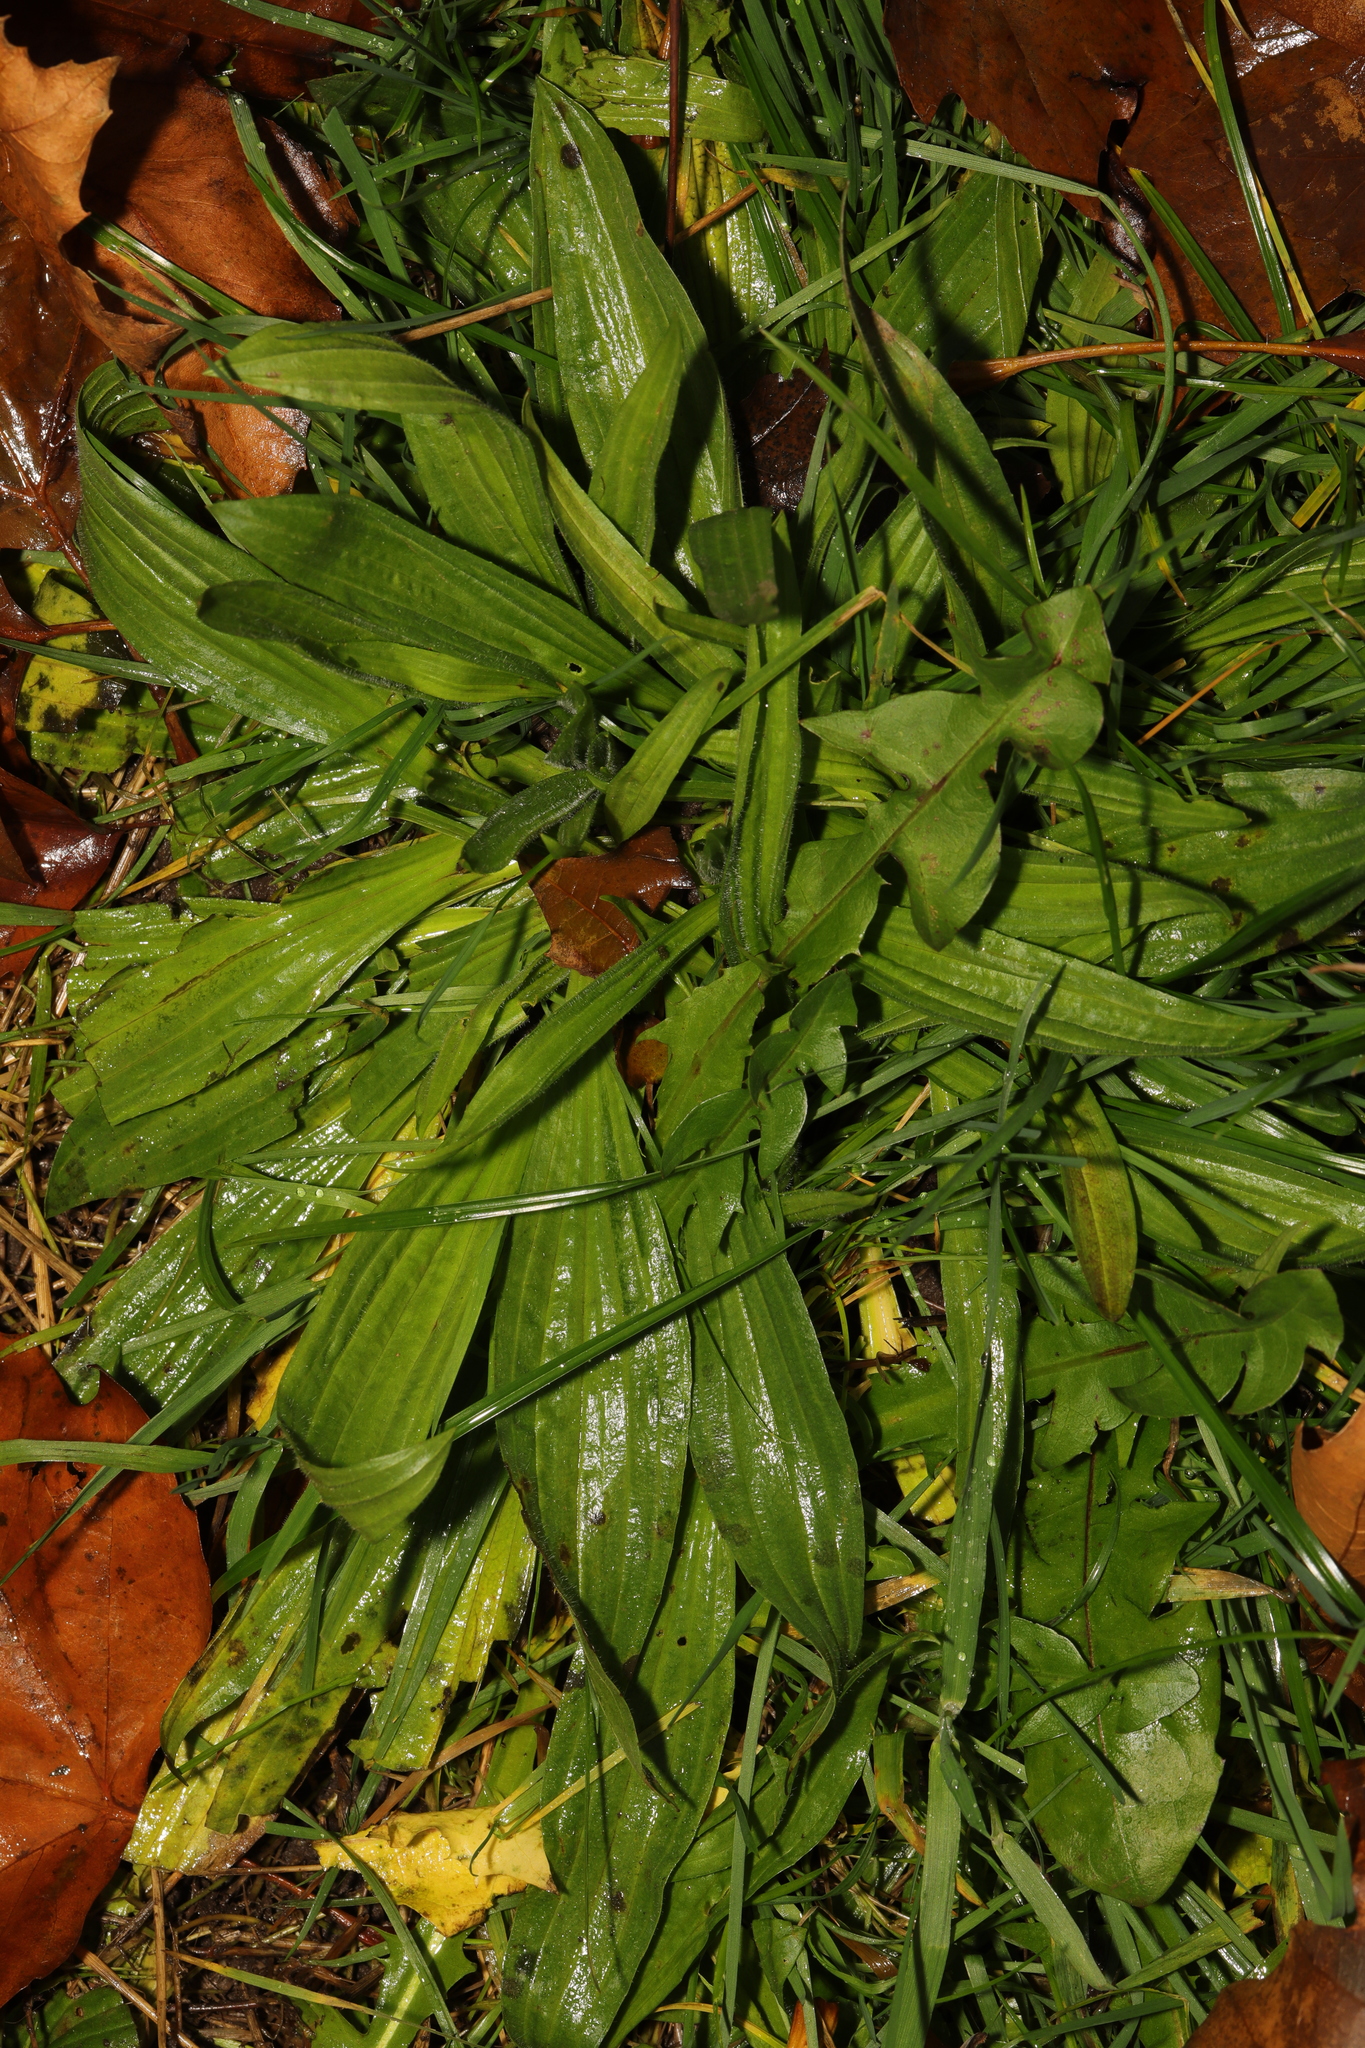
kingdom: Plantae
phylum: Tracheophyta
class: Magnoliopsida
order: Lamiales
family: Plantaginaceae
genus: Plantago
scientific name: Plantago lanceolata
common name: Ribwort plantain
